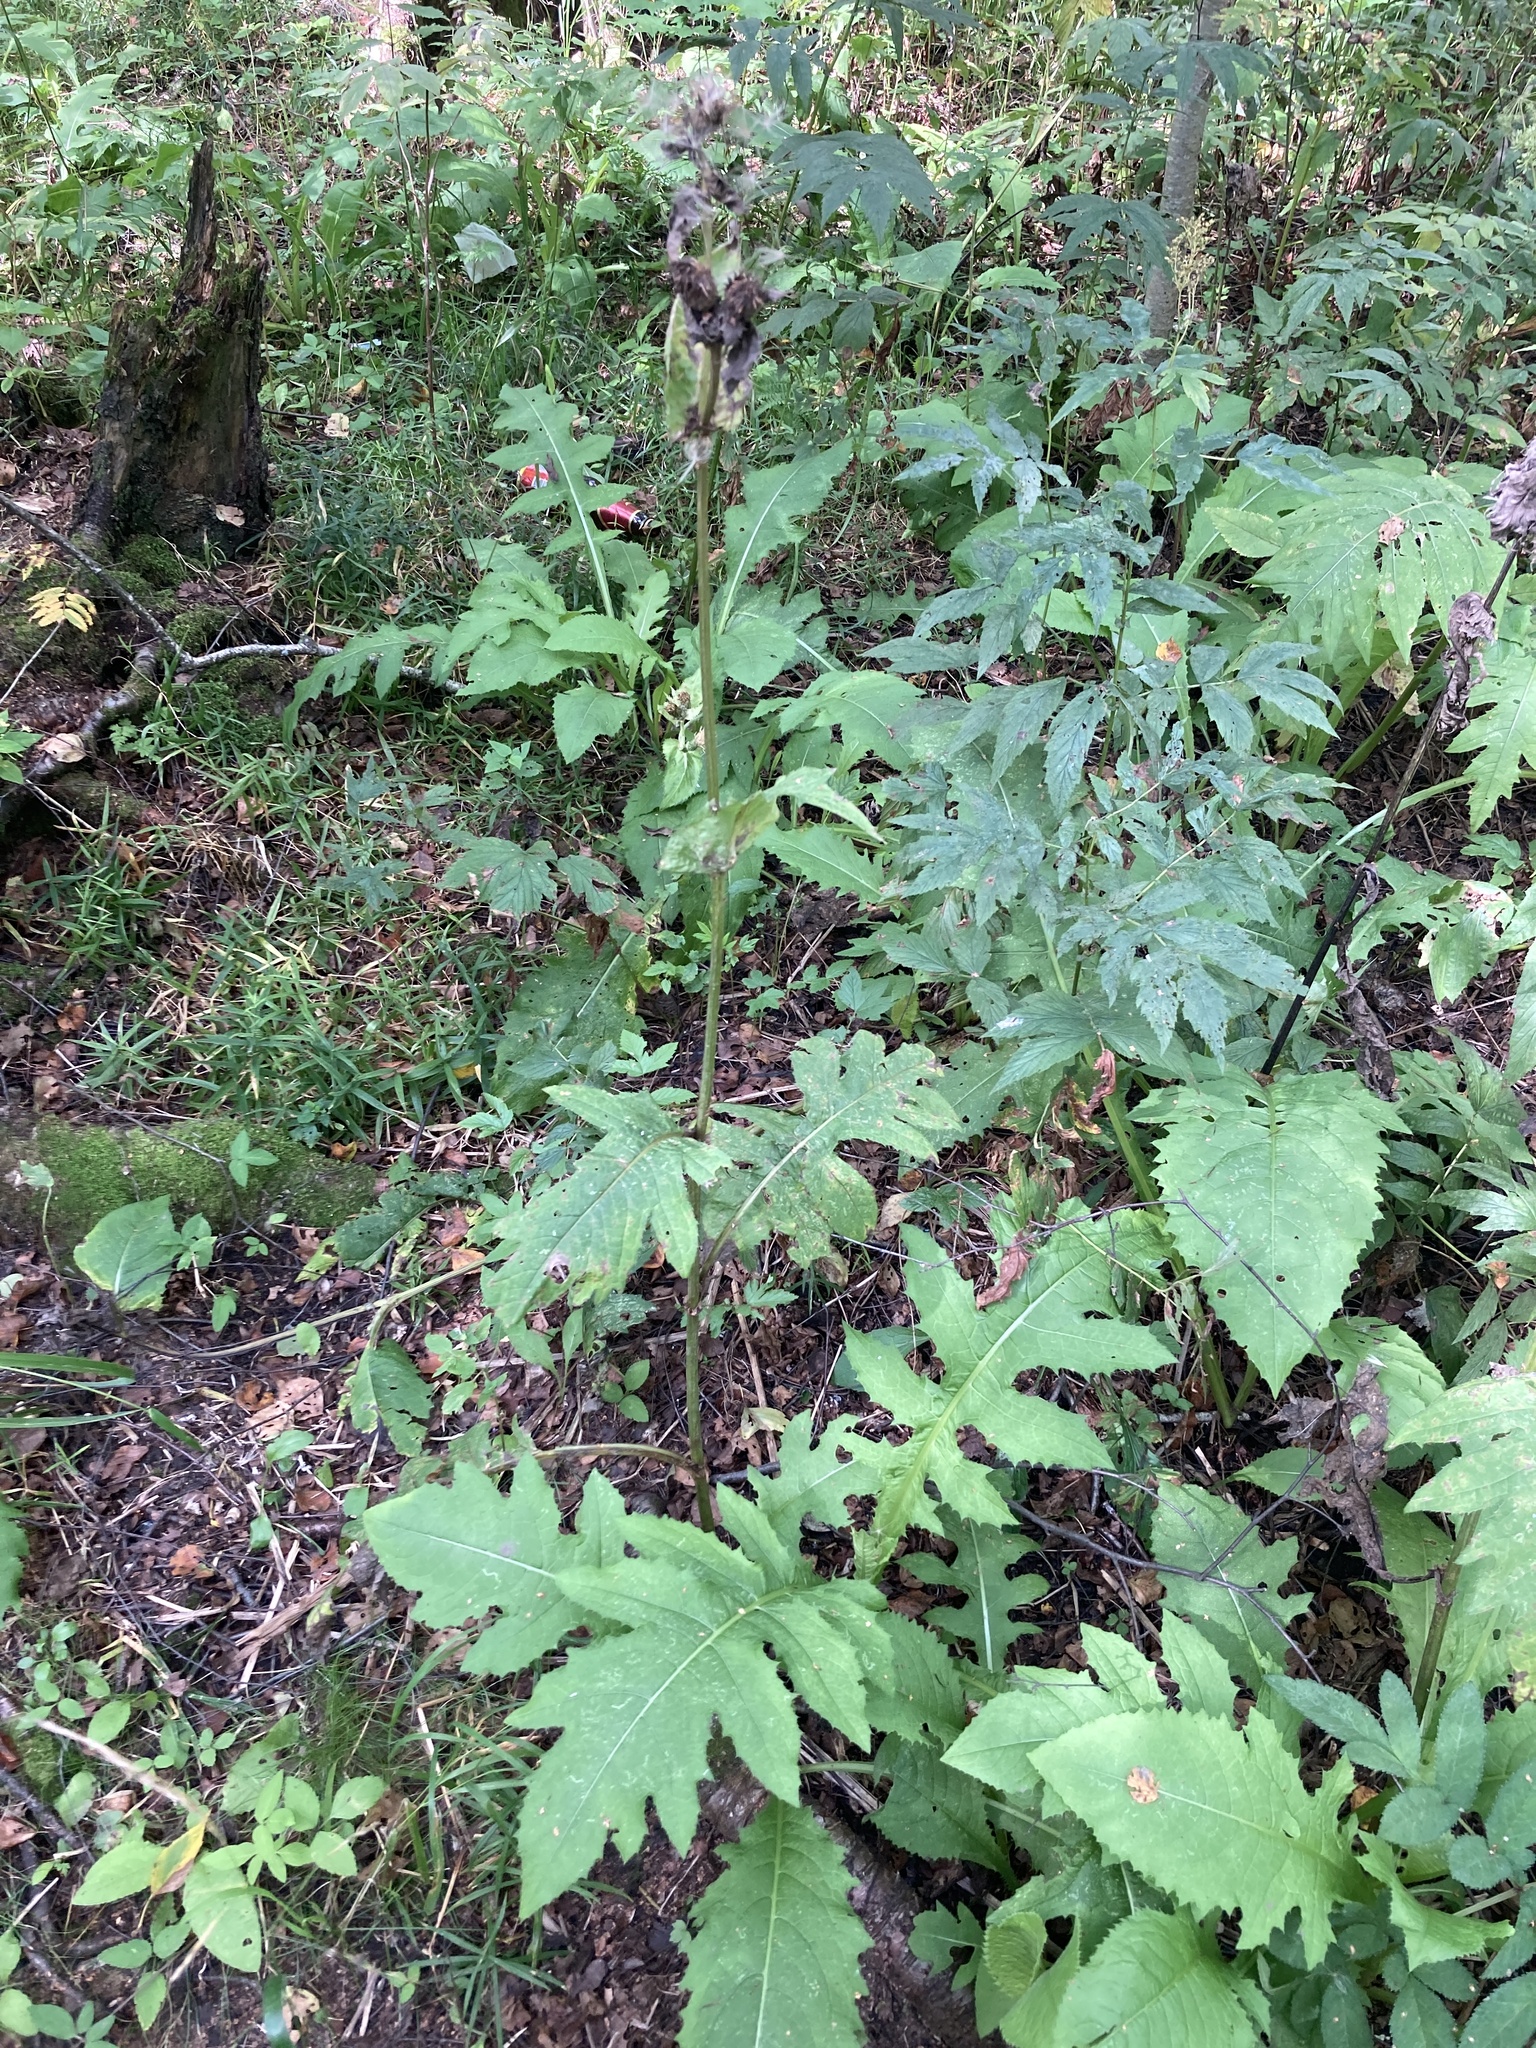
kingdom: Plantae
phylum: Tracheophyta
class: Magnoliopsida
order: Asterales
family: Asteraceae
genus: Cirsium
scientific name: Cirsium oleraceum
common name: Cabbage thistle
